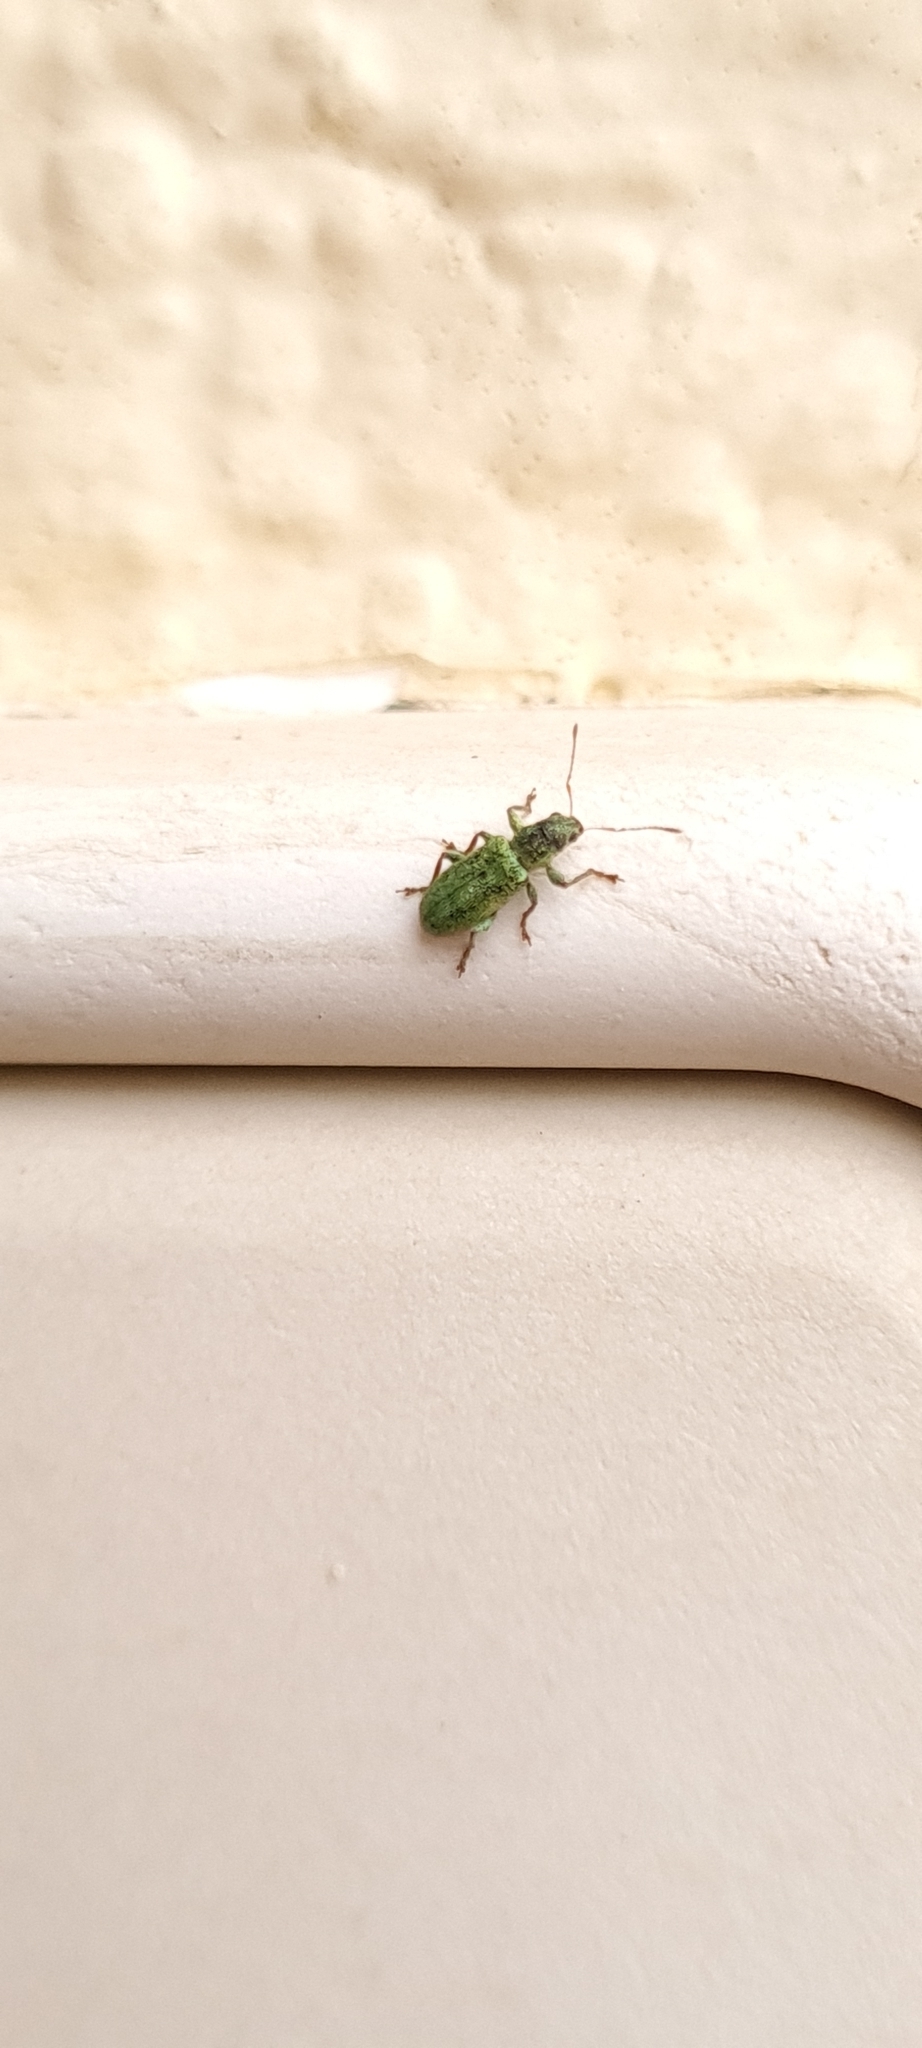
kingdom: Animalia
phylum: Arthropoda
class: Insecta
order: Coleoptera
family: Curculionidae
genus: Pachyrhinus
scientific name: Pachyrhinus lethierryi
